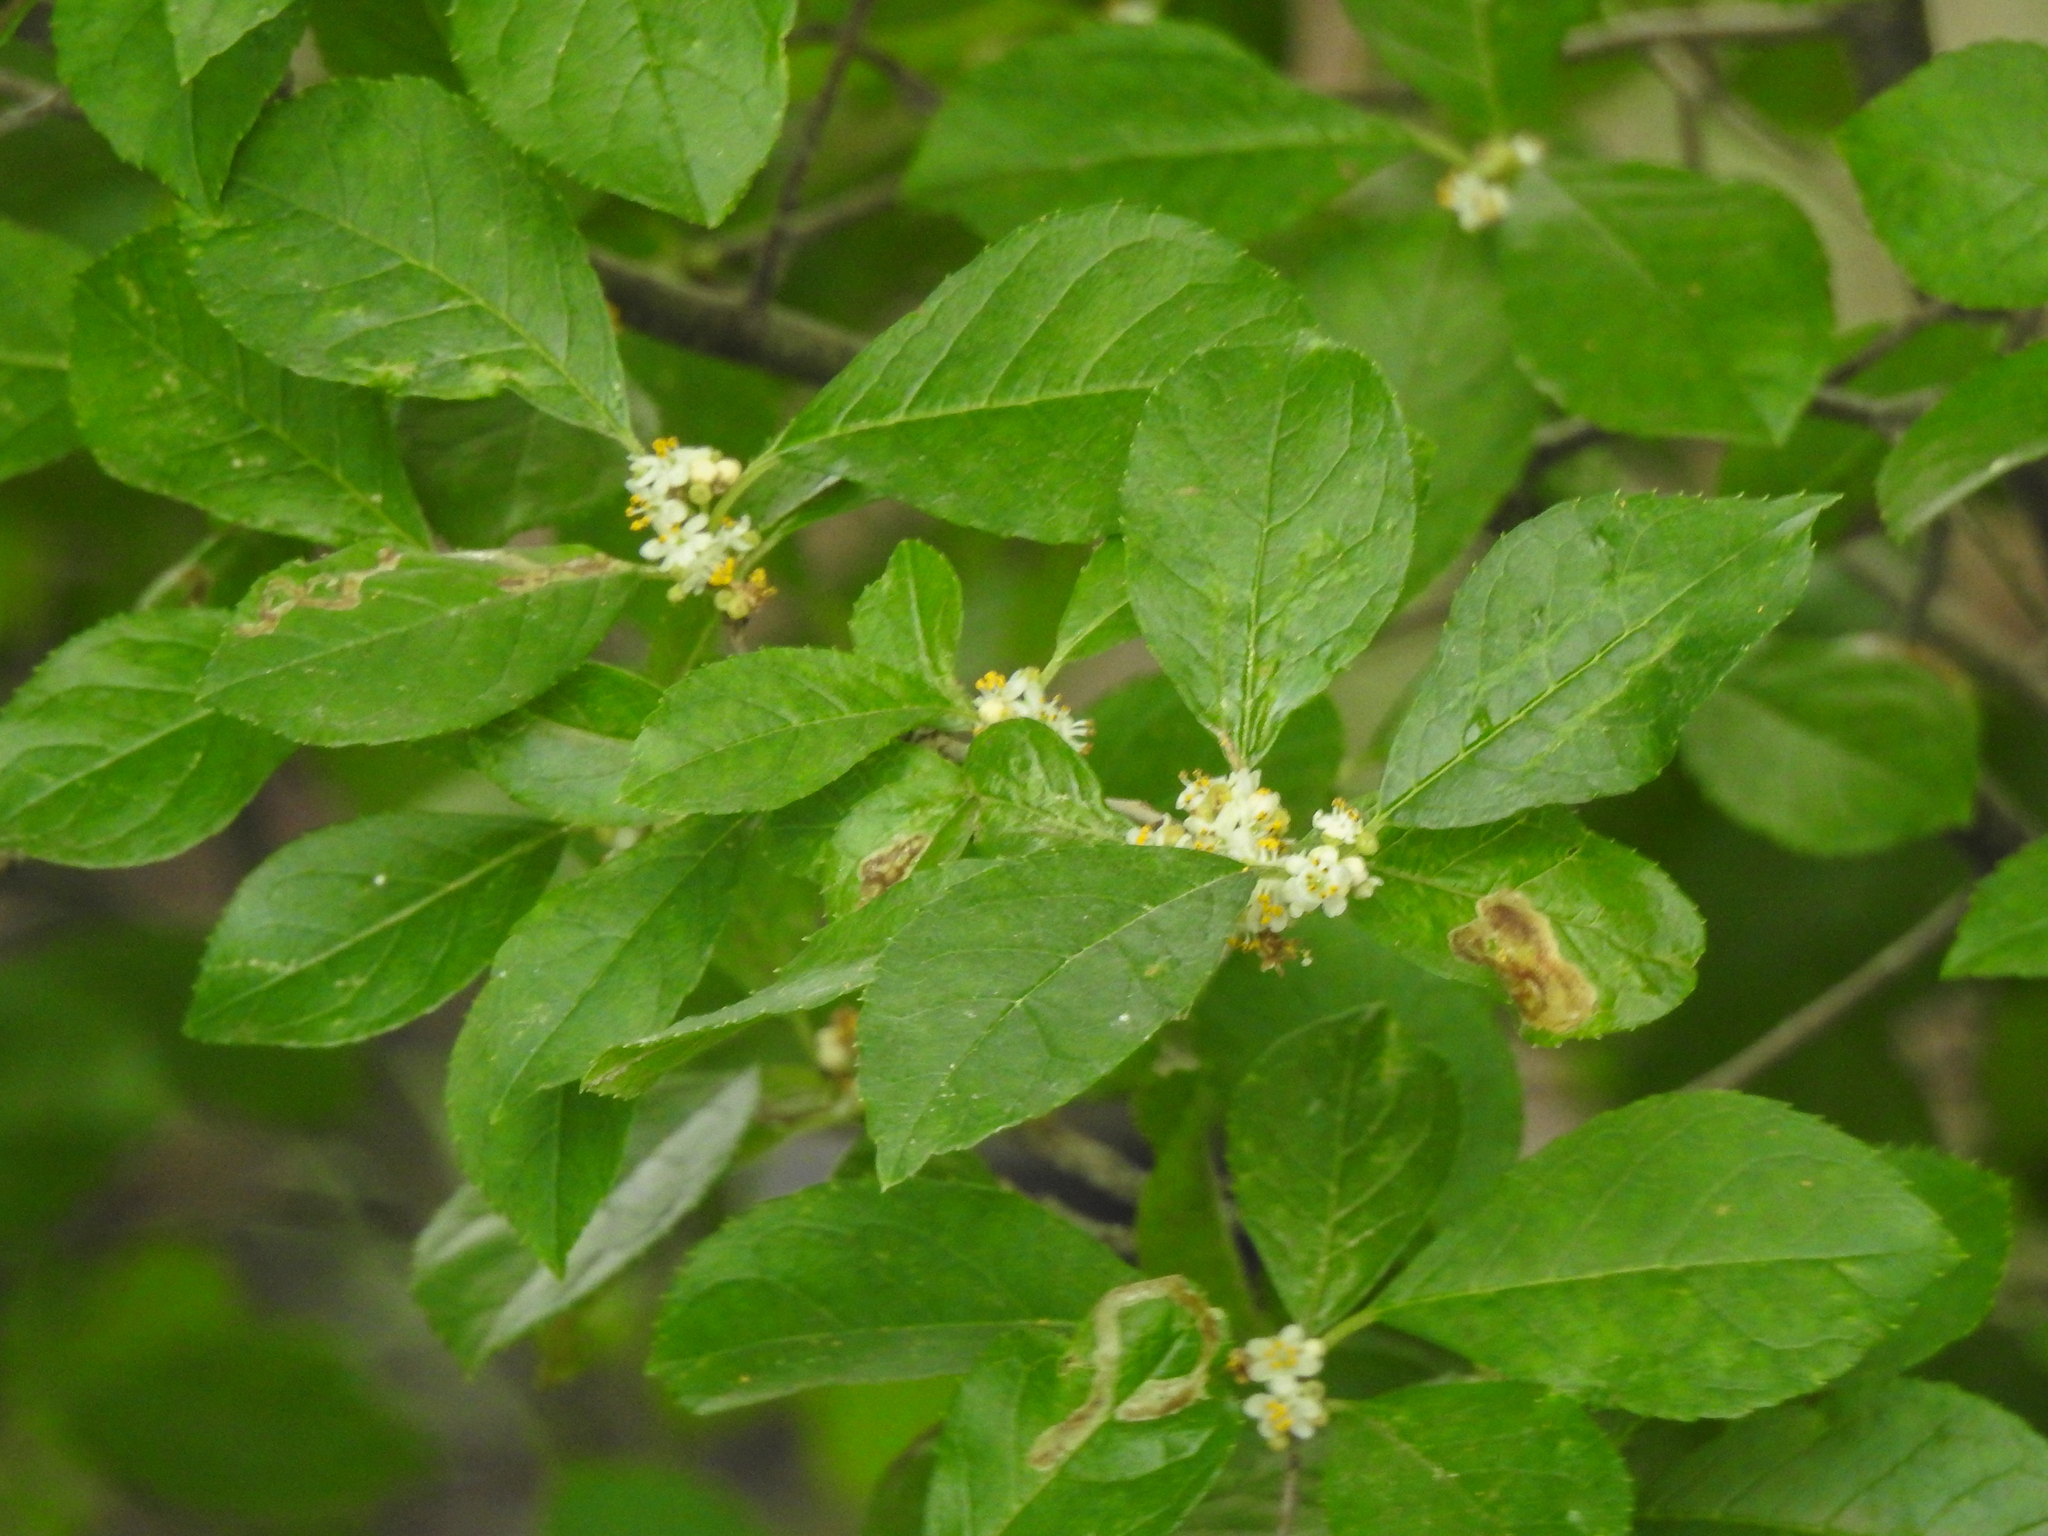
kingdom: Plantae
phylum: Tracheophyta
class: Magnoliopsida
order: Aquifoliales
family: Aquifoliaceae
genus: Ilex
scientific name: Ilex verticillata
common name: Virginia winterberry
